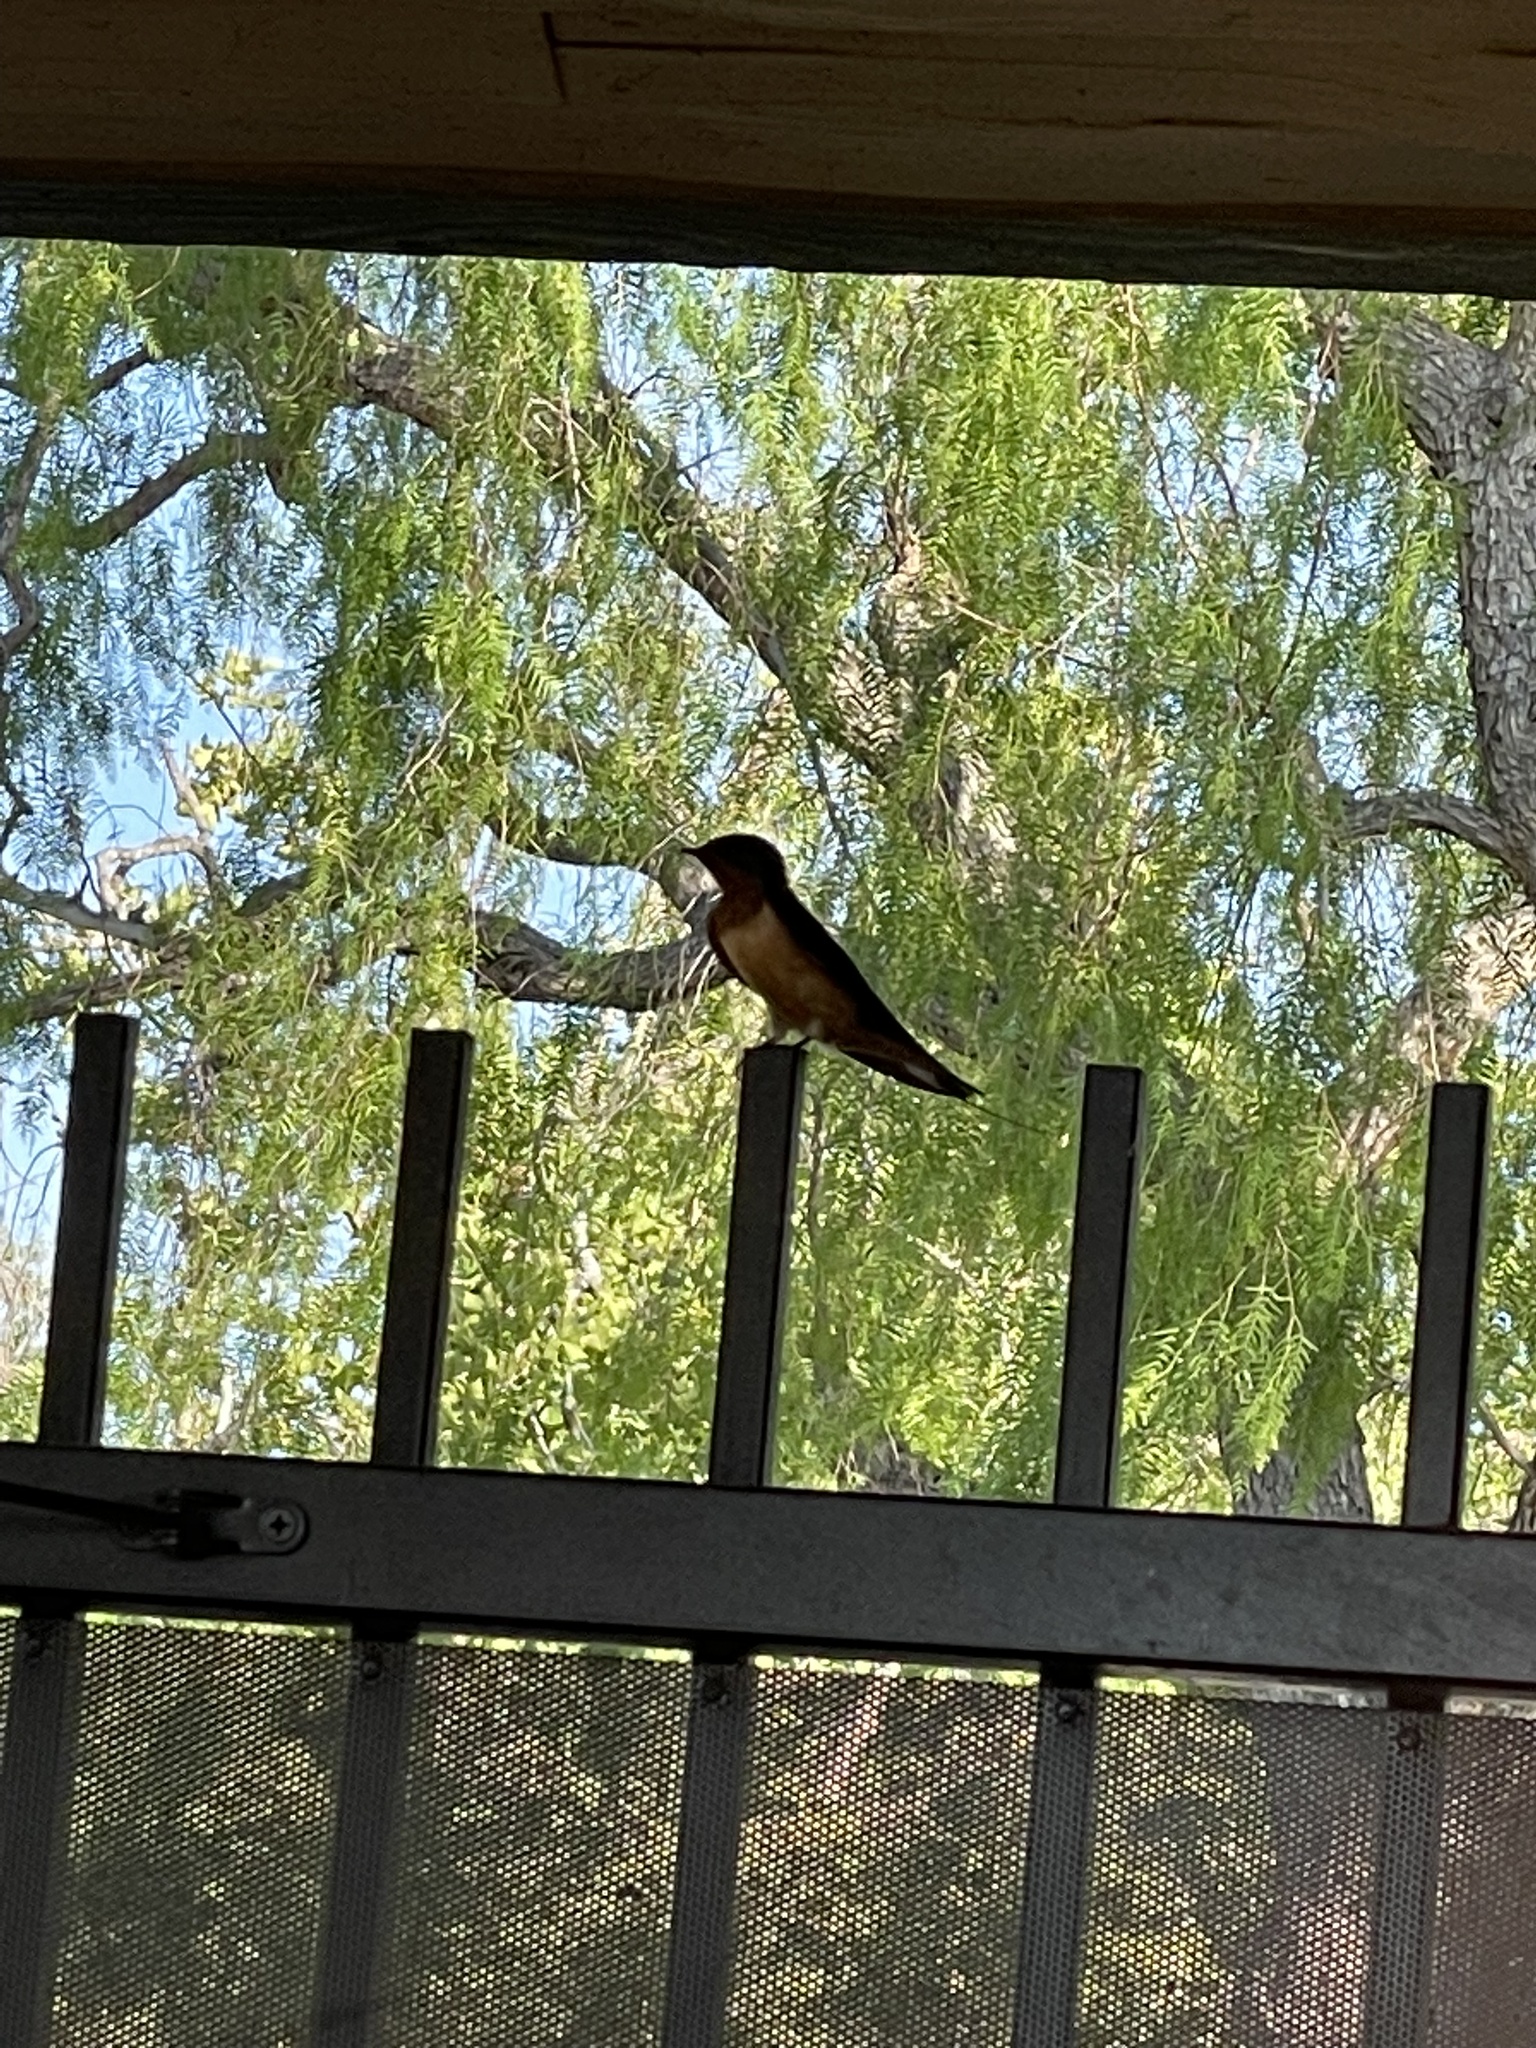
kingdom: Animalia
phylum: Chordata
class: Aves
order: Passeriformes
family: Hirundinidae
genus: Hirundo
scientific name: Hirundo rustica
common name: Barn swallow
